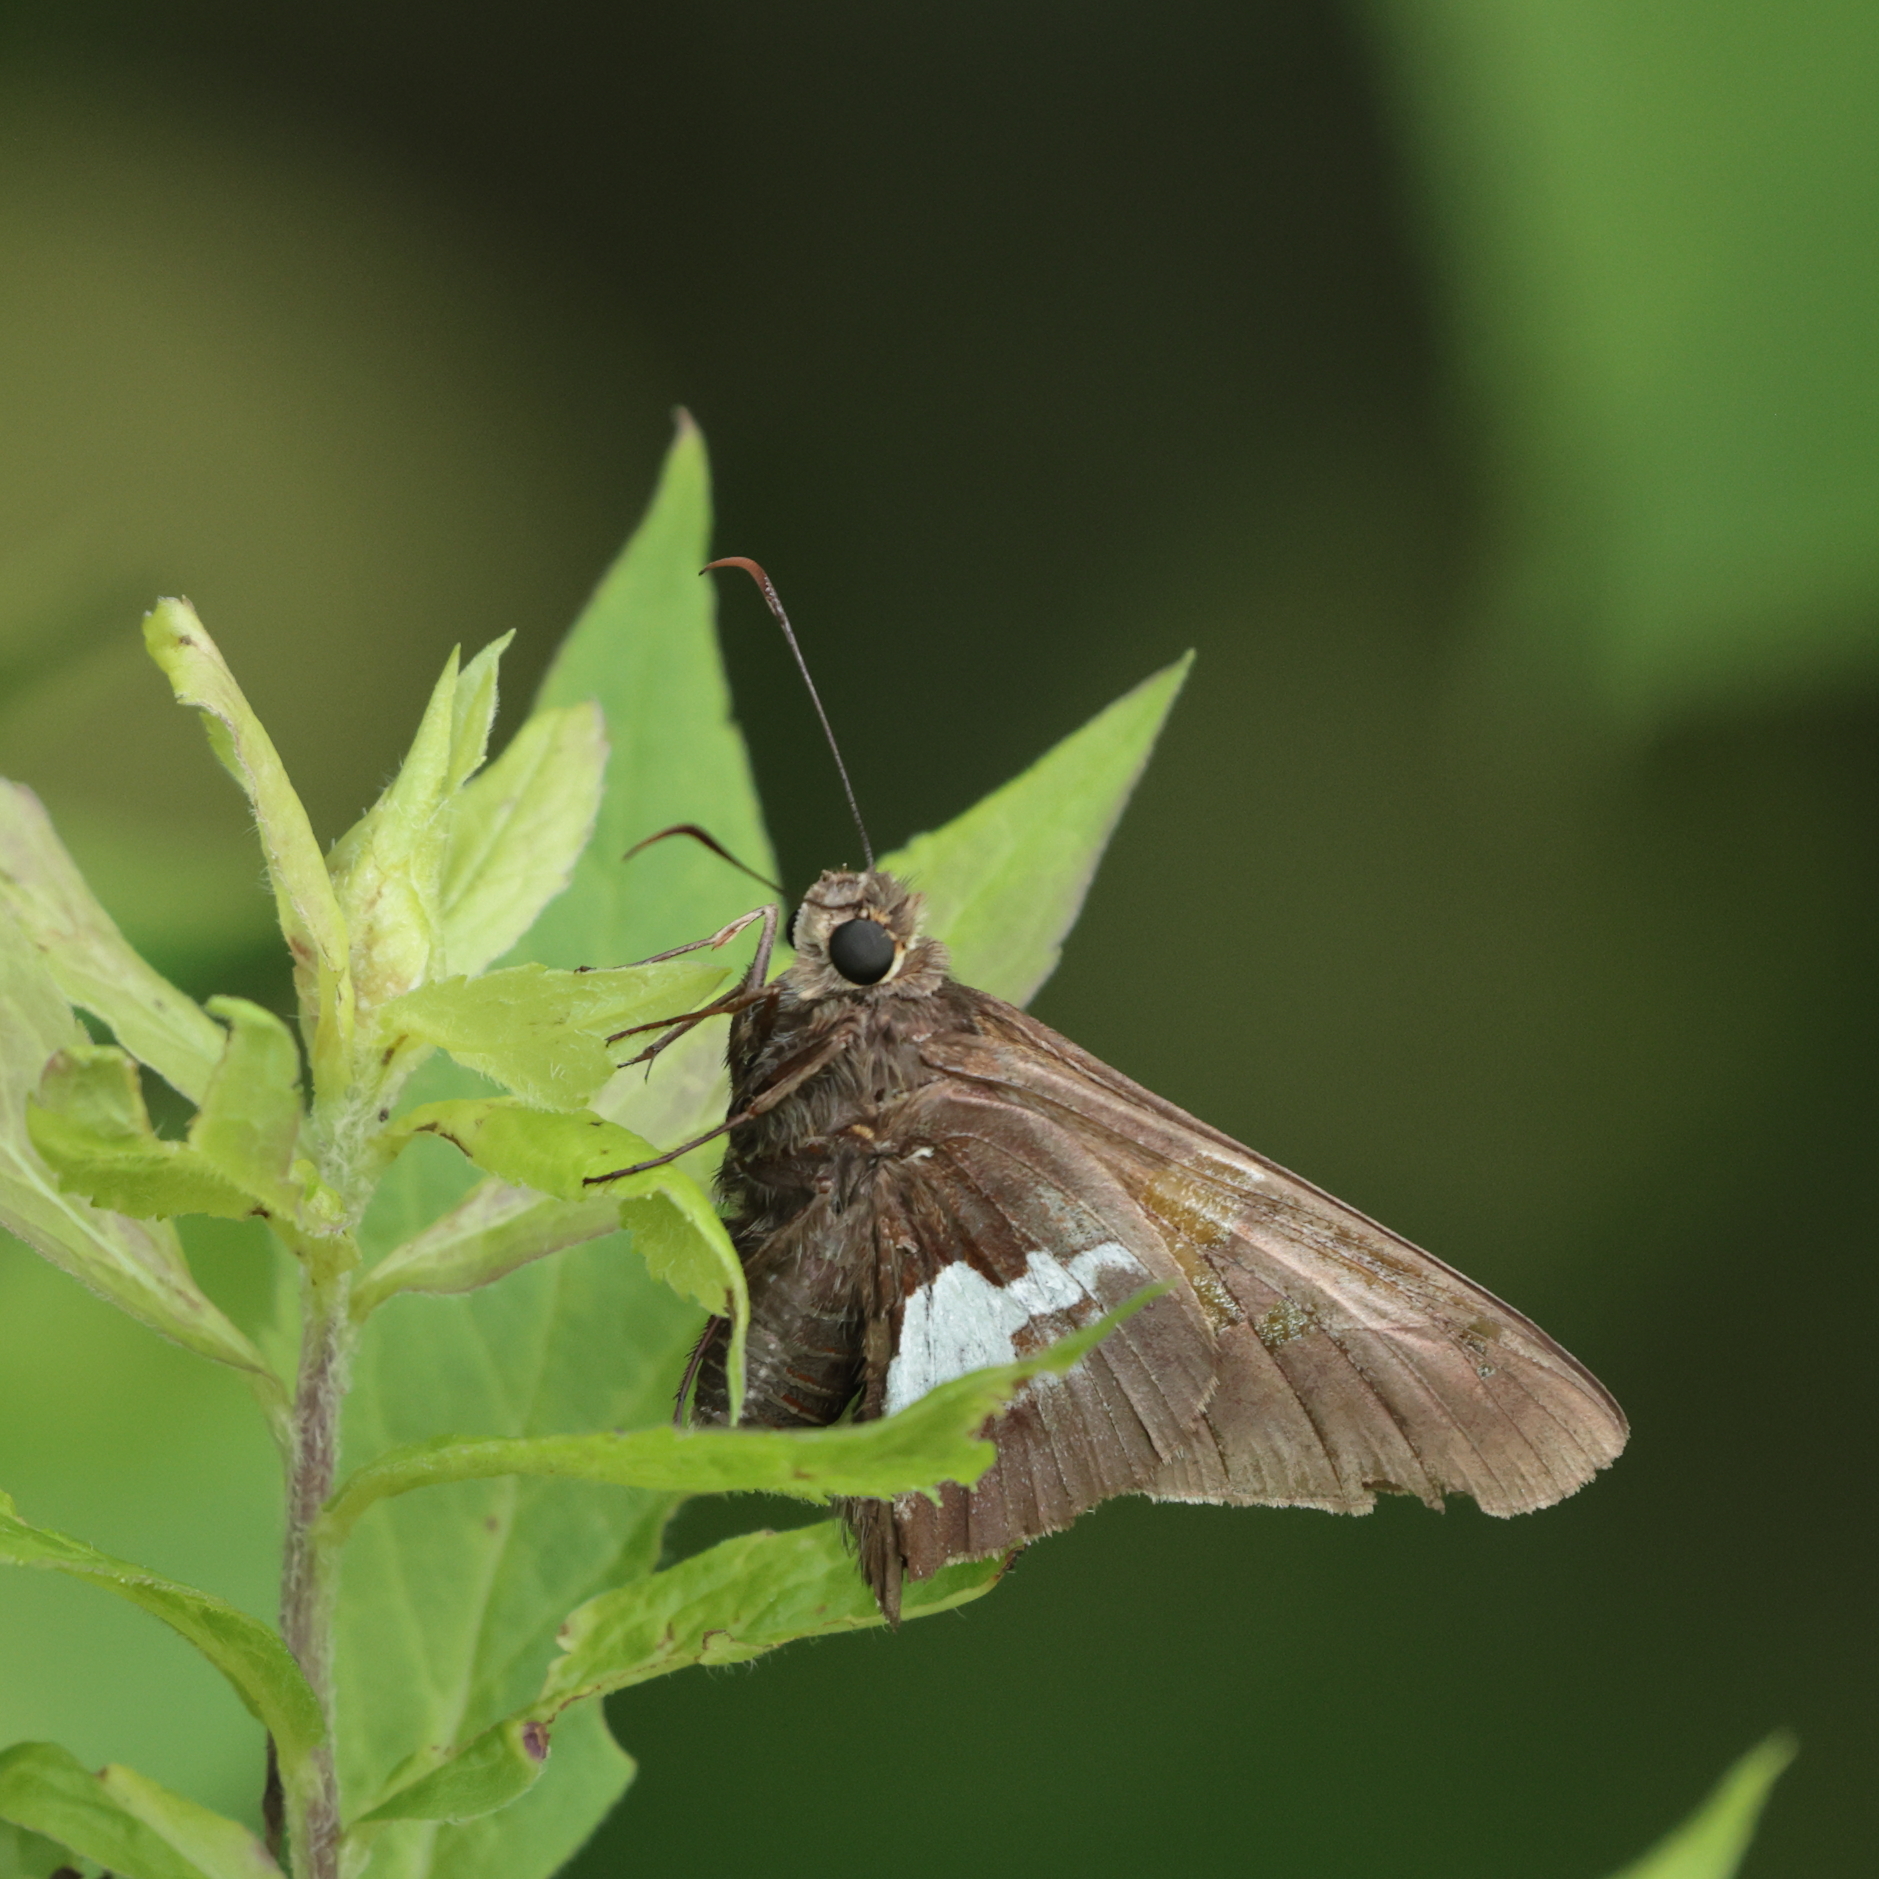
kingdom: Animalia
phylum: Arthropoda
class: Insecta
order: Lepidoptera
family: Hesperiidae
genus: Epargyreus
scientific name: Epargyreus clarus
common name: Silver-spotted skipper
